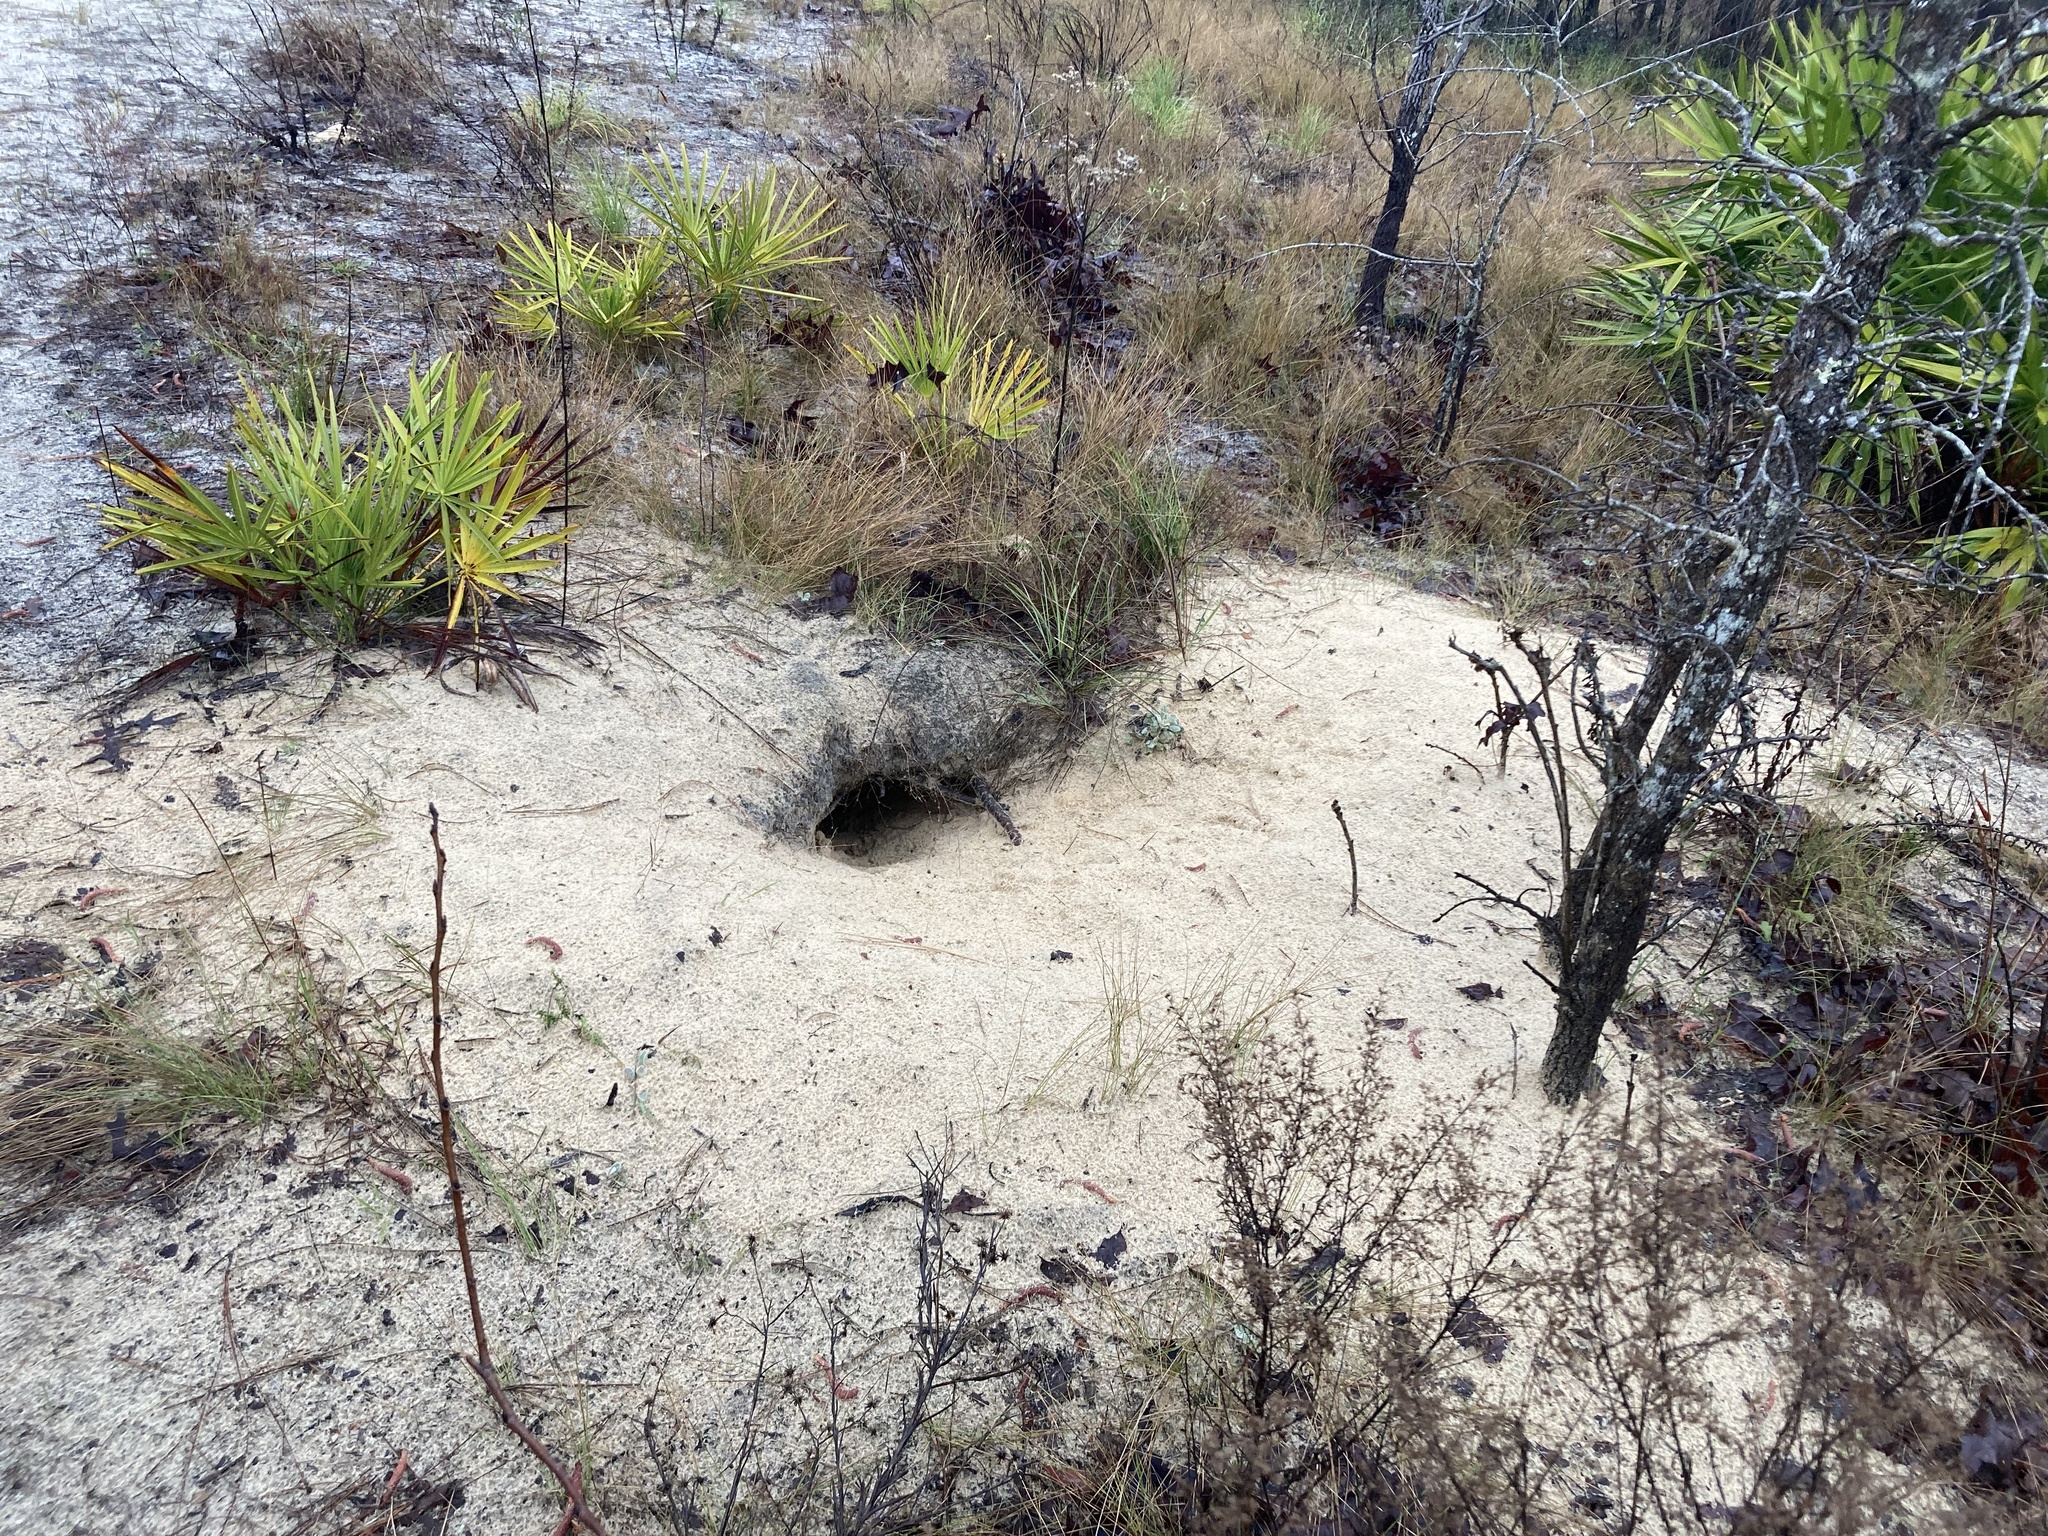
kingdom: Animalia
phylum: Chordata
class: Testudines
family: Testudinidae
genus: Gopherus
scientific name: Gopherus polyphemus
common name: Florida gopher tortoise
